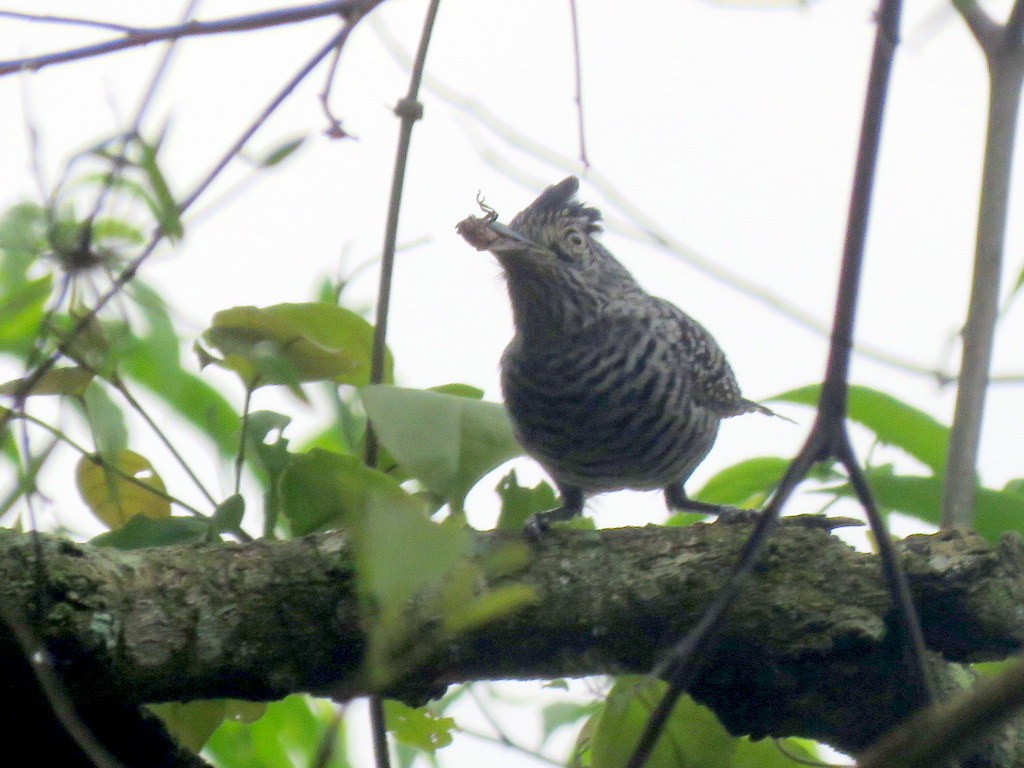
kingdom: Animalia
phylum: Chordata
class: Aves
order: Passeriformes
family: Thamnophilidae
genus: Thamnophilus
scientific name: Thamnophilus doliatus
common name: Barred antshrike
